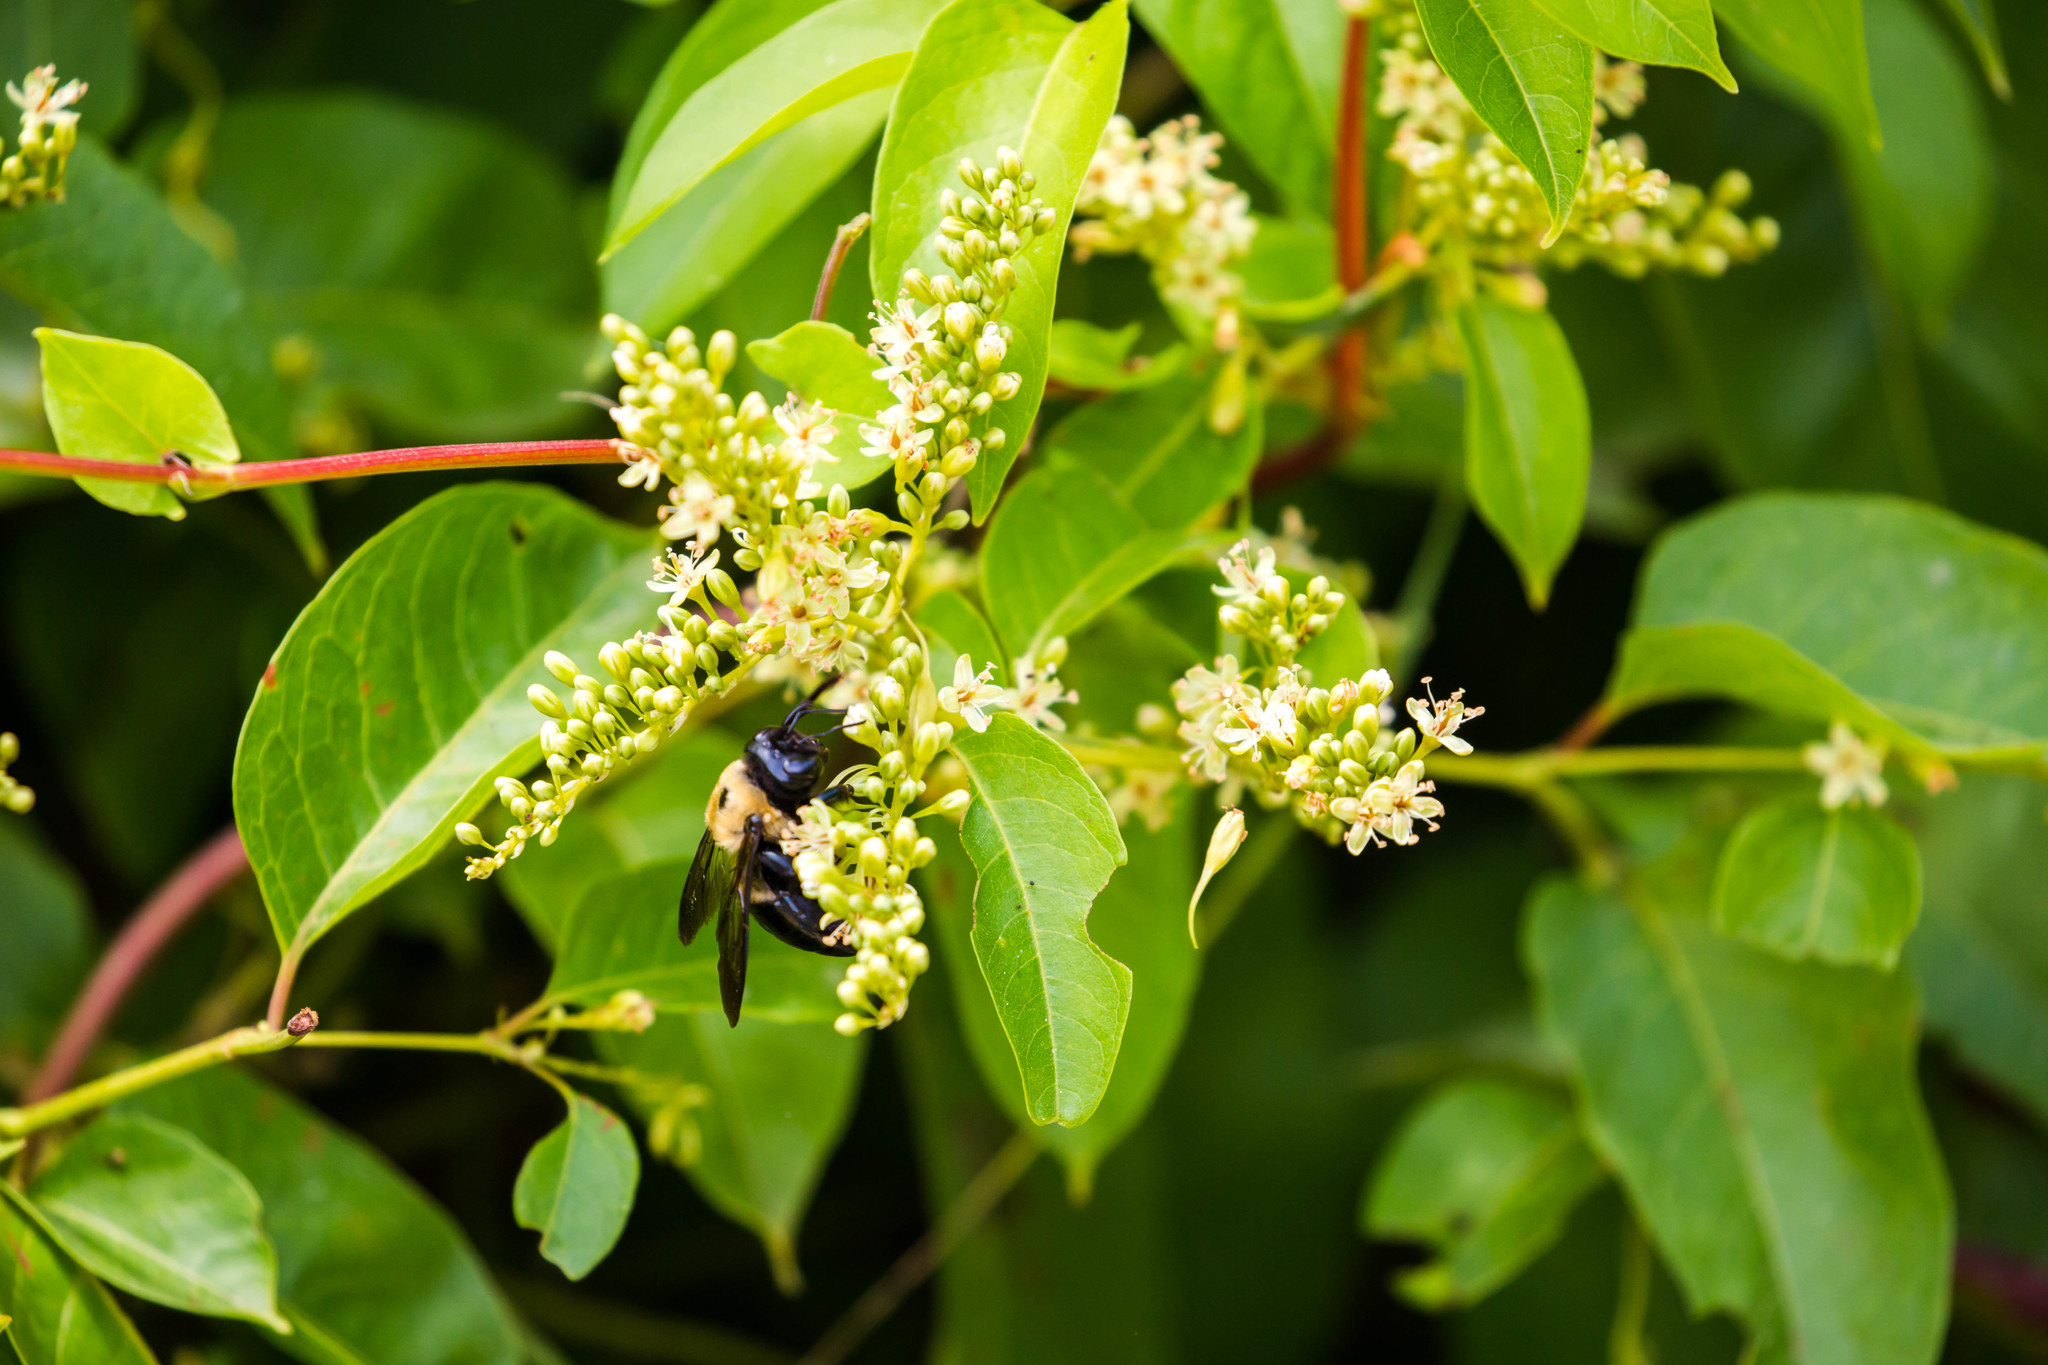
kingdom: Animalia
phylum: Arthropoda
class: Insecta
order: Hymenoptera
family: Apidae
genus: Xylocopa
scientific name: Xylocopa virginica
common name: Carpenter bee
